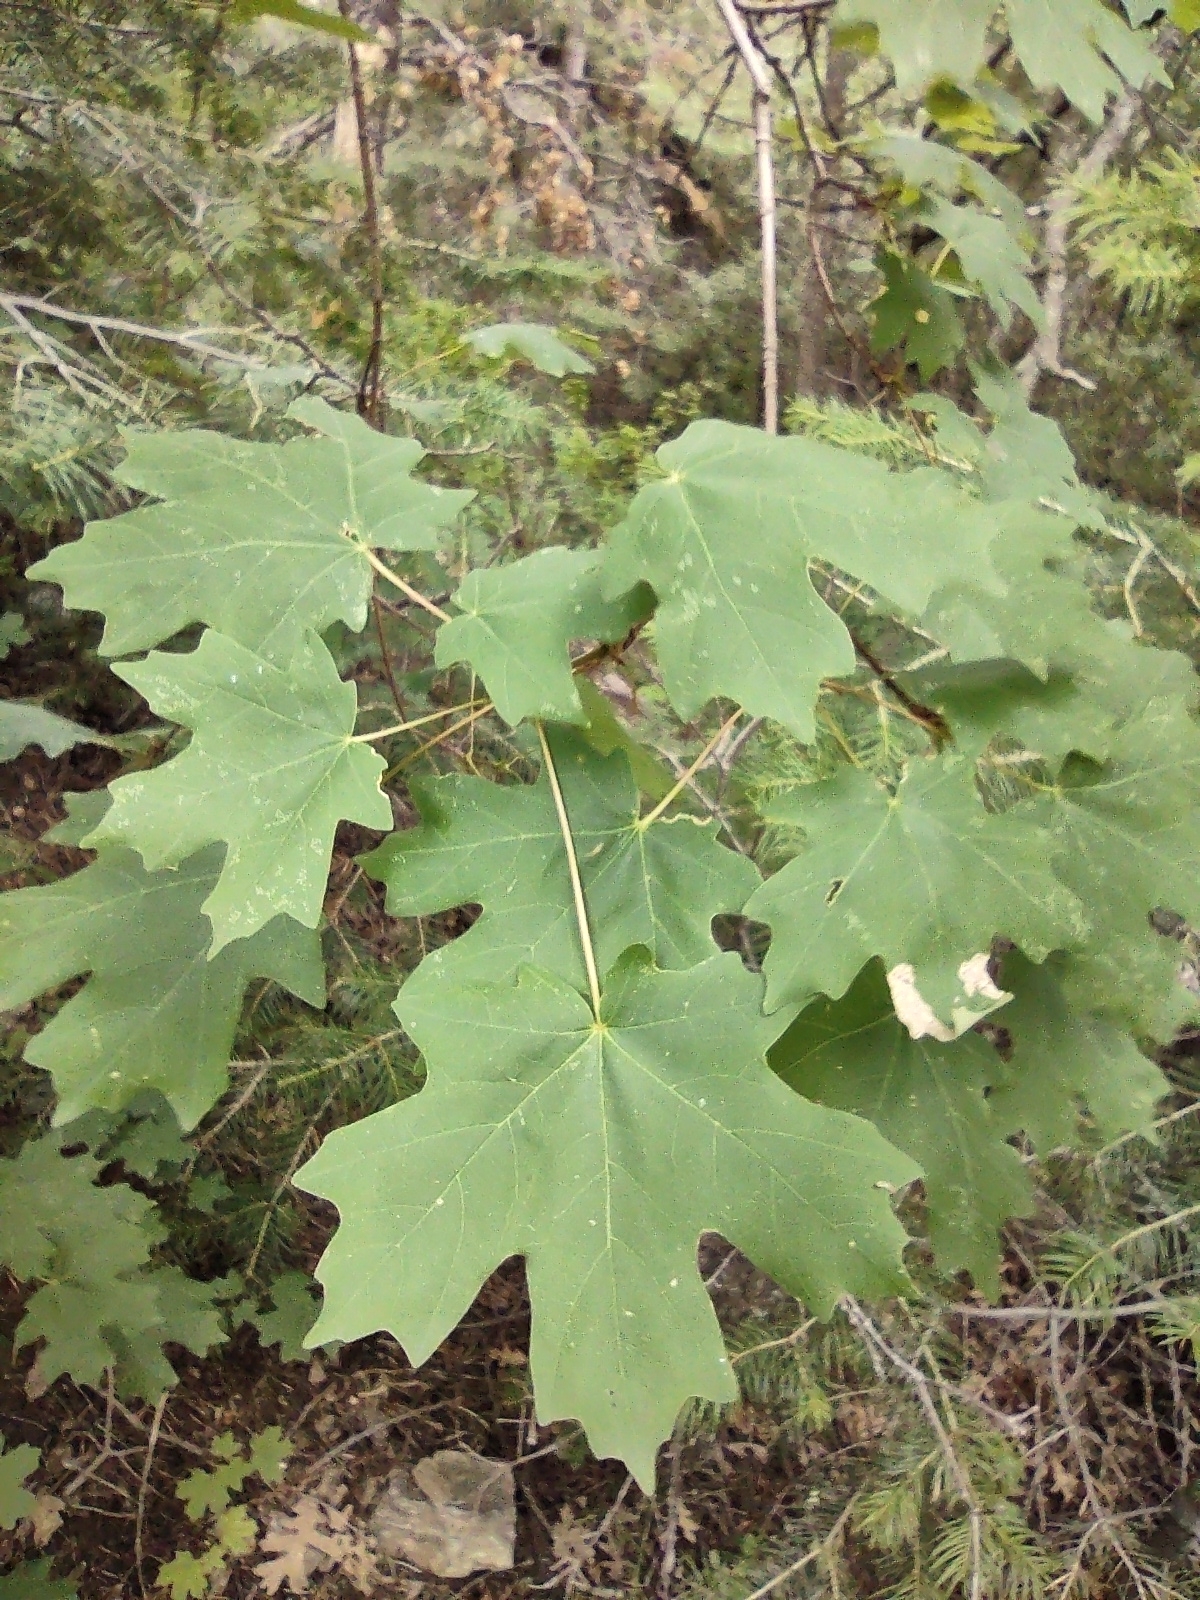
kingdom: Plantae
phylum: Tracheophyta
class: Magnoliopsida
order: Sapindales
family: Sapindaceae
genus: Acer
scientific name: Acer grandidentatum
